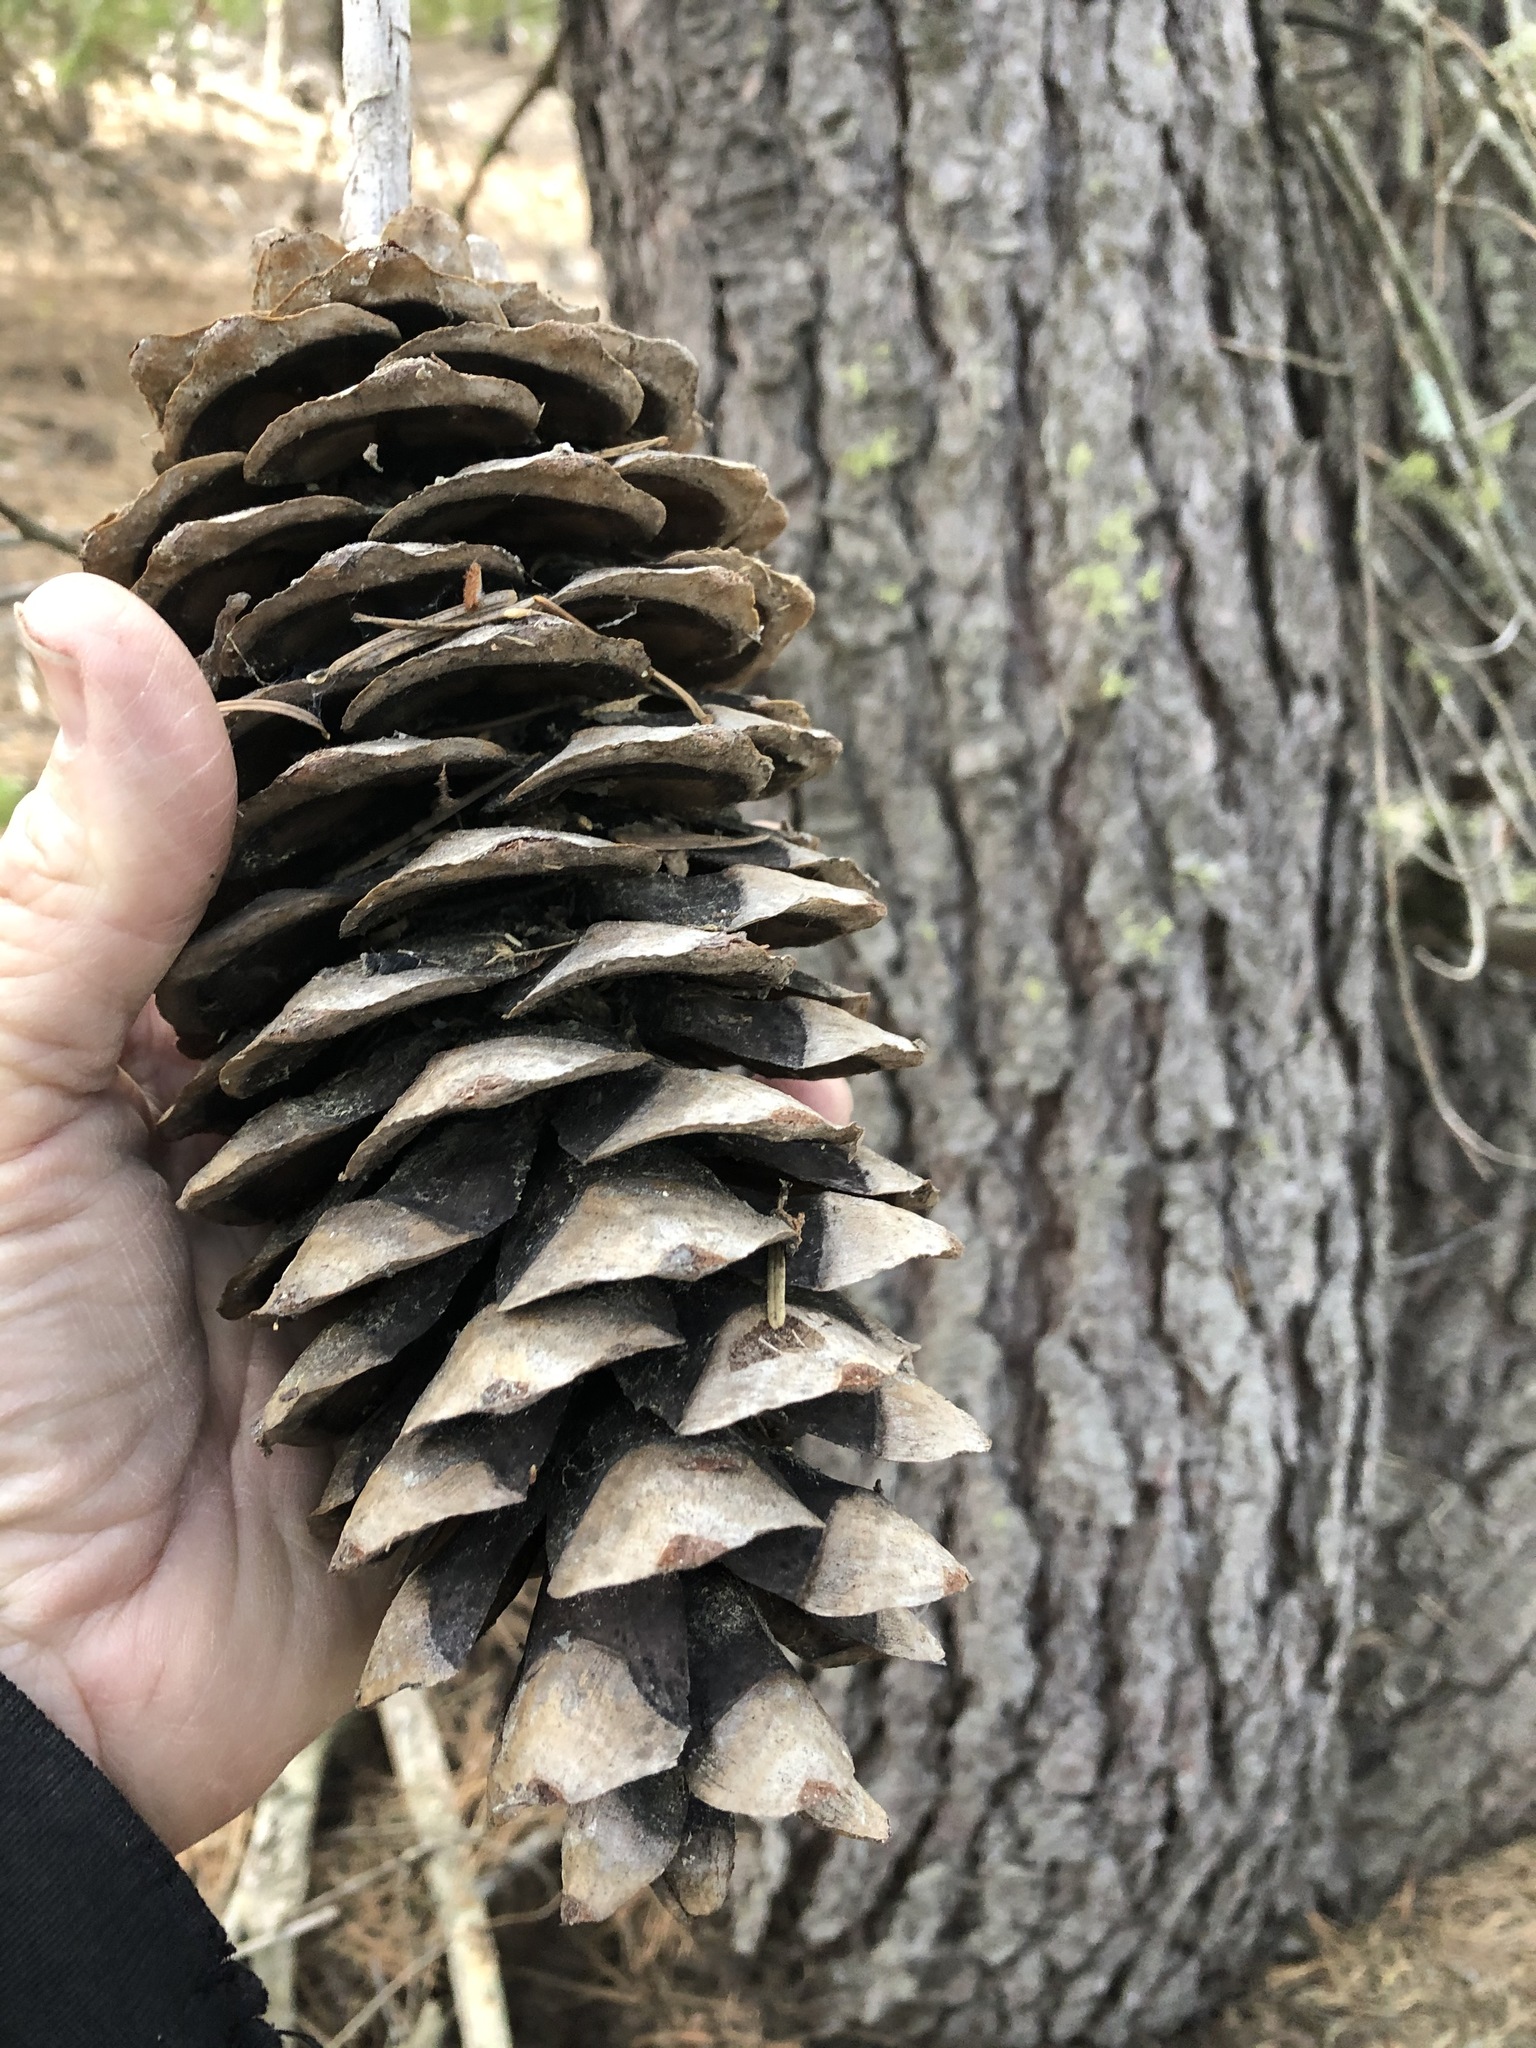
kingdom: Plantae
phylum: Tracheophyta
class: Pinopsida
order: Pinales
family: Pinaceae
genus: Pinus
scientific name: Pinus lambertiana
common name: Sugar pine
